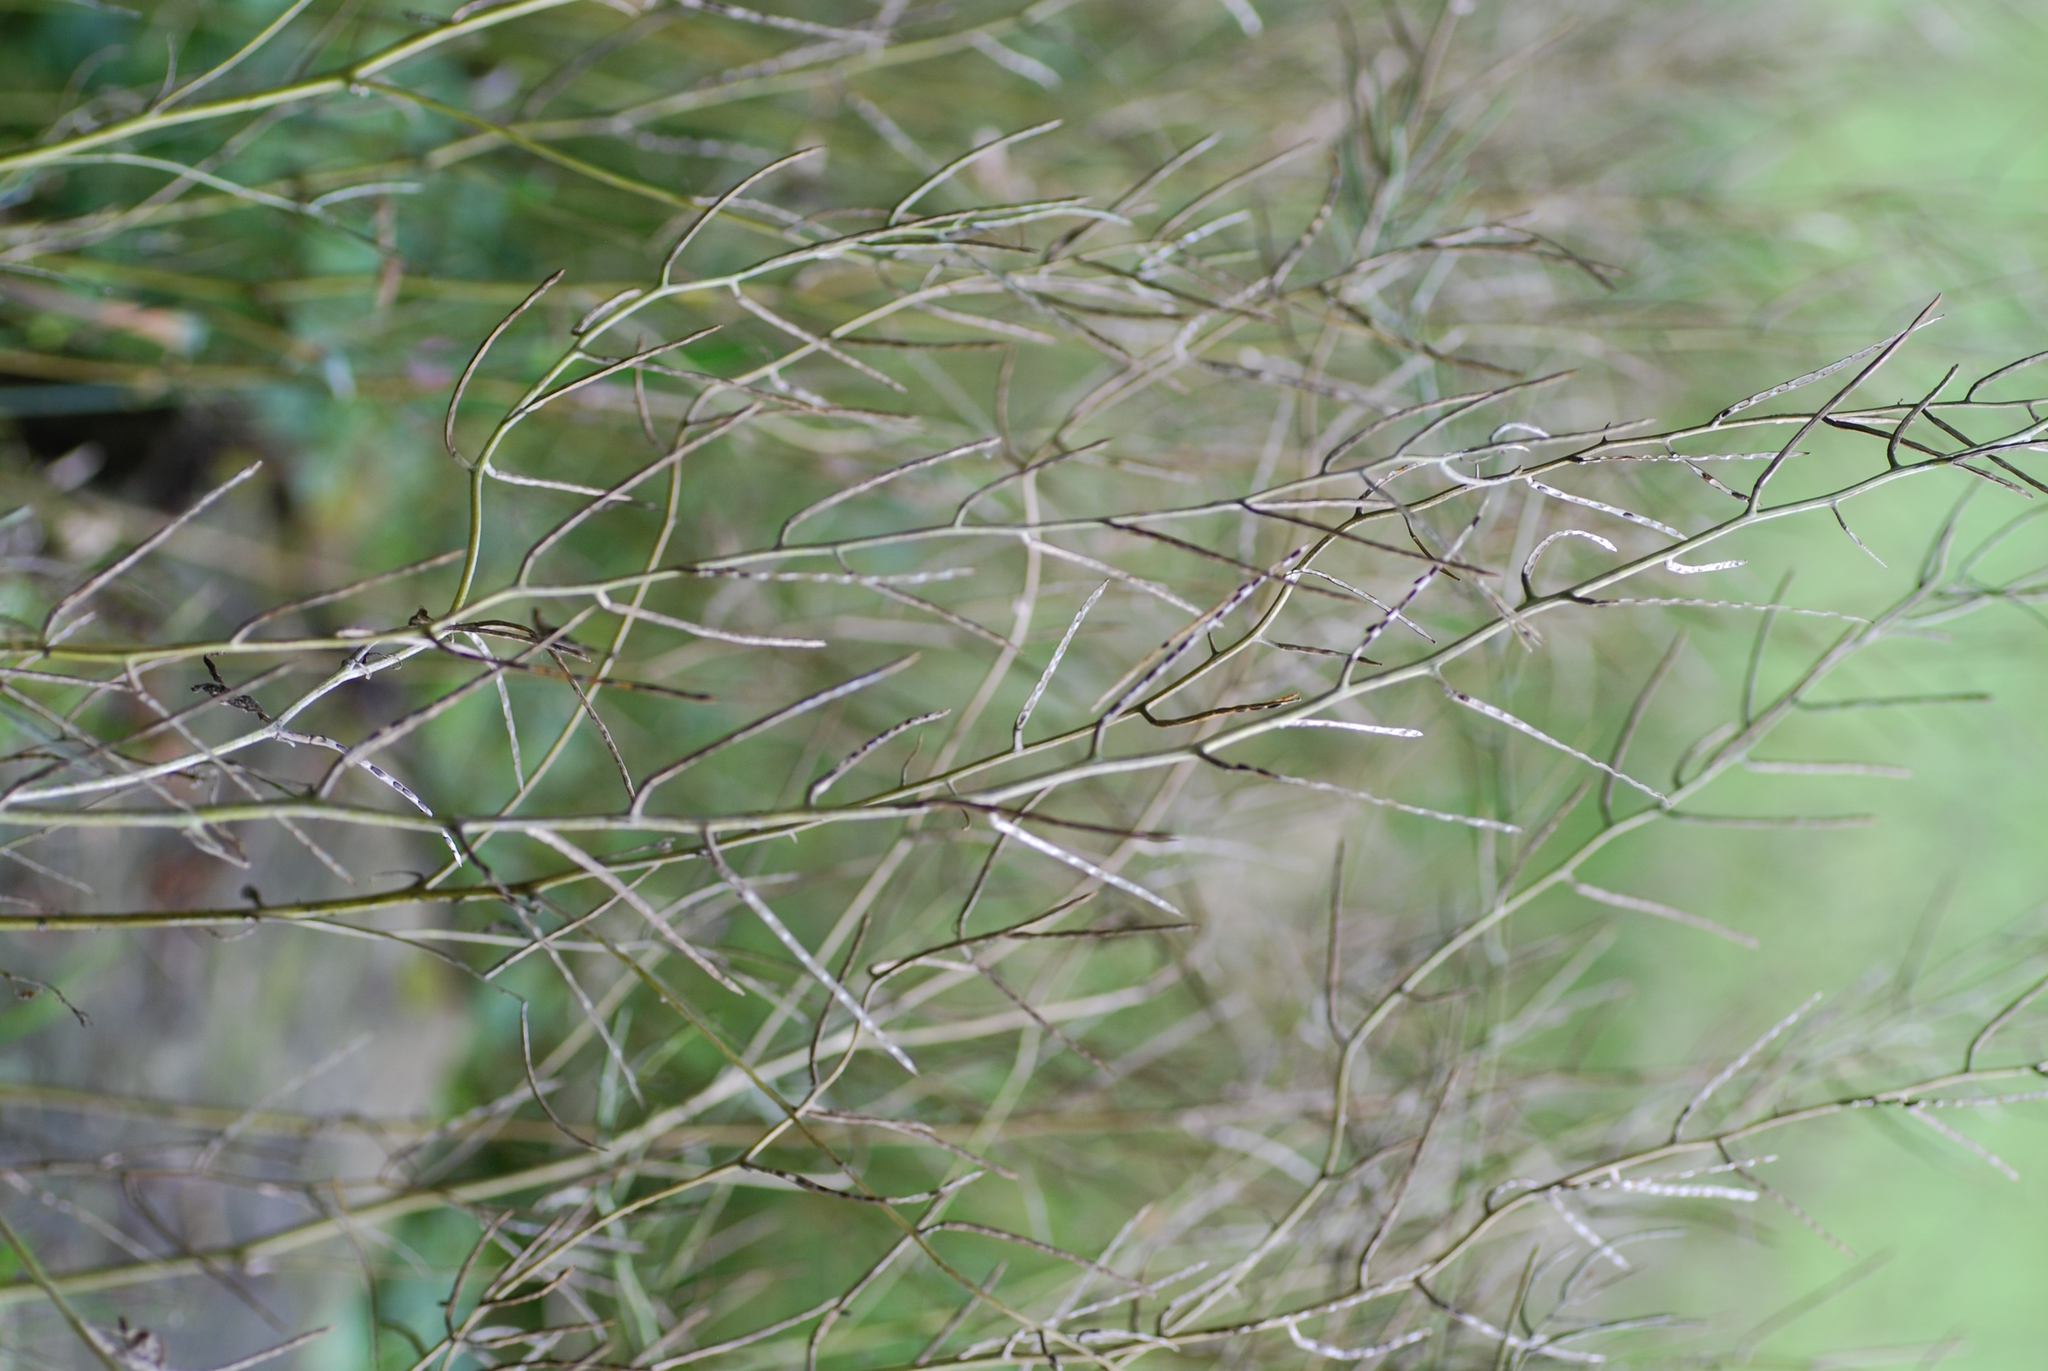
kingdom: Plantae
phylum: Tracheophyta
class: Magnoliopsida
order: Brassicales
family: Brassicaceae
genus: Alliaria
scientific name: Alliaria petiolata
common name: Garlic mustard
